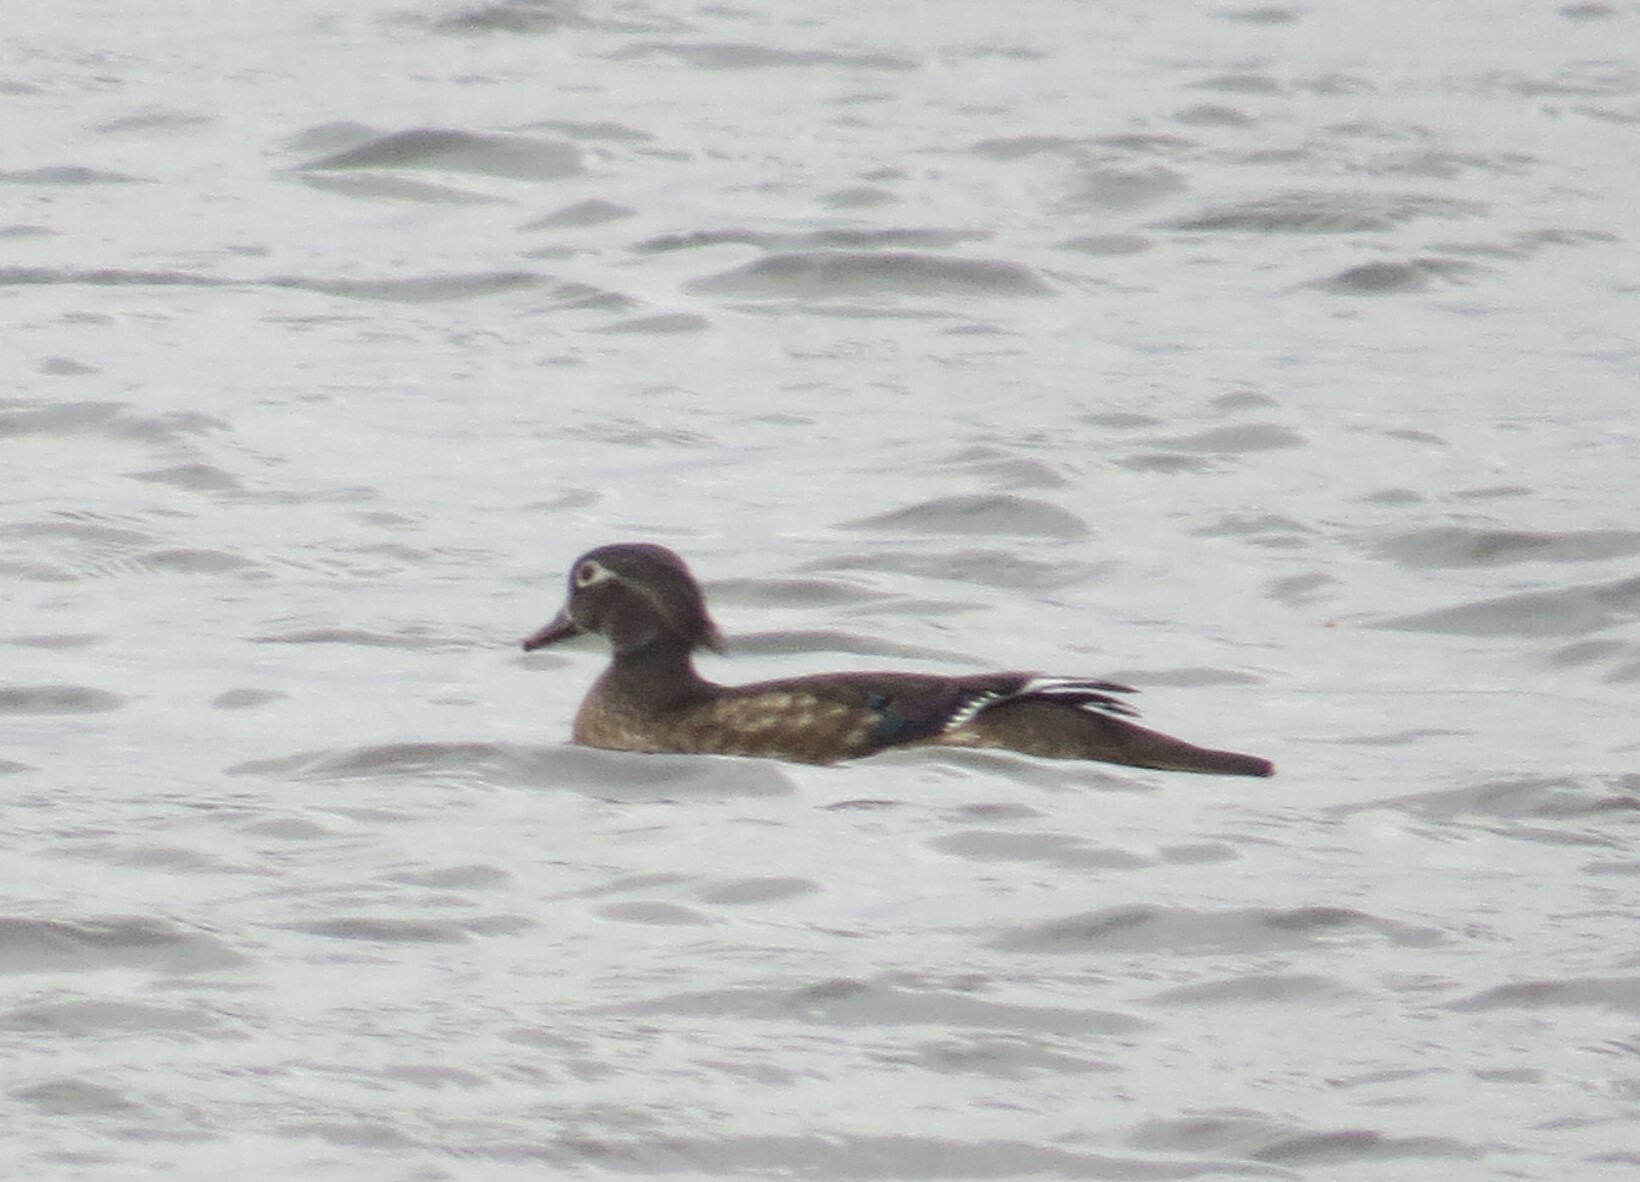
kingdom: Animalia
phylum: Chordata
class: Aves
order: Anseriformes
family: Anatidae
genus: Aix
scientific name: Aix sponsa
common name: Wood duck
